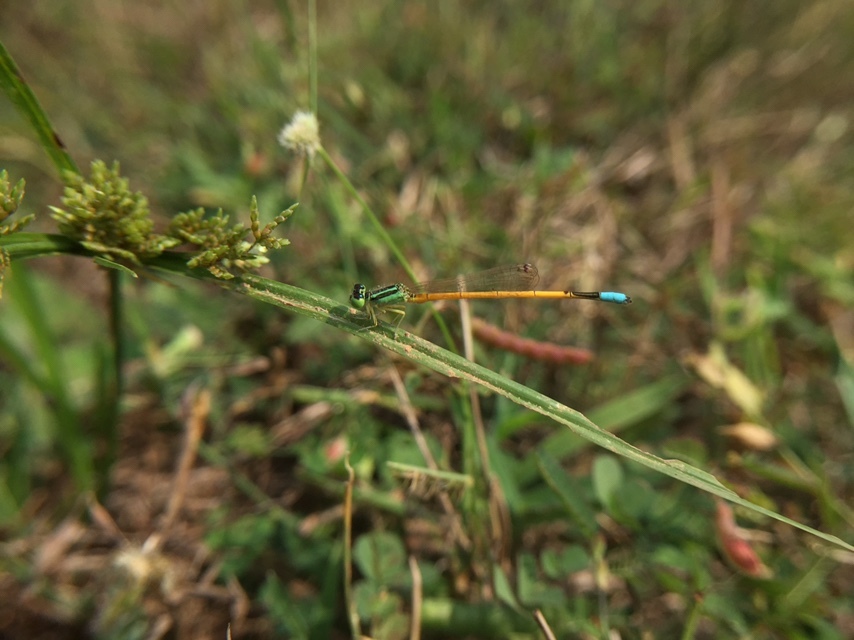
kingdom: Animalia
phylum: Arthropoda
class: Insecta
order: Odonata
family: Coenagrionidae
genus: Ischnura
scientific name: Ischnura rubilio
